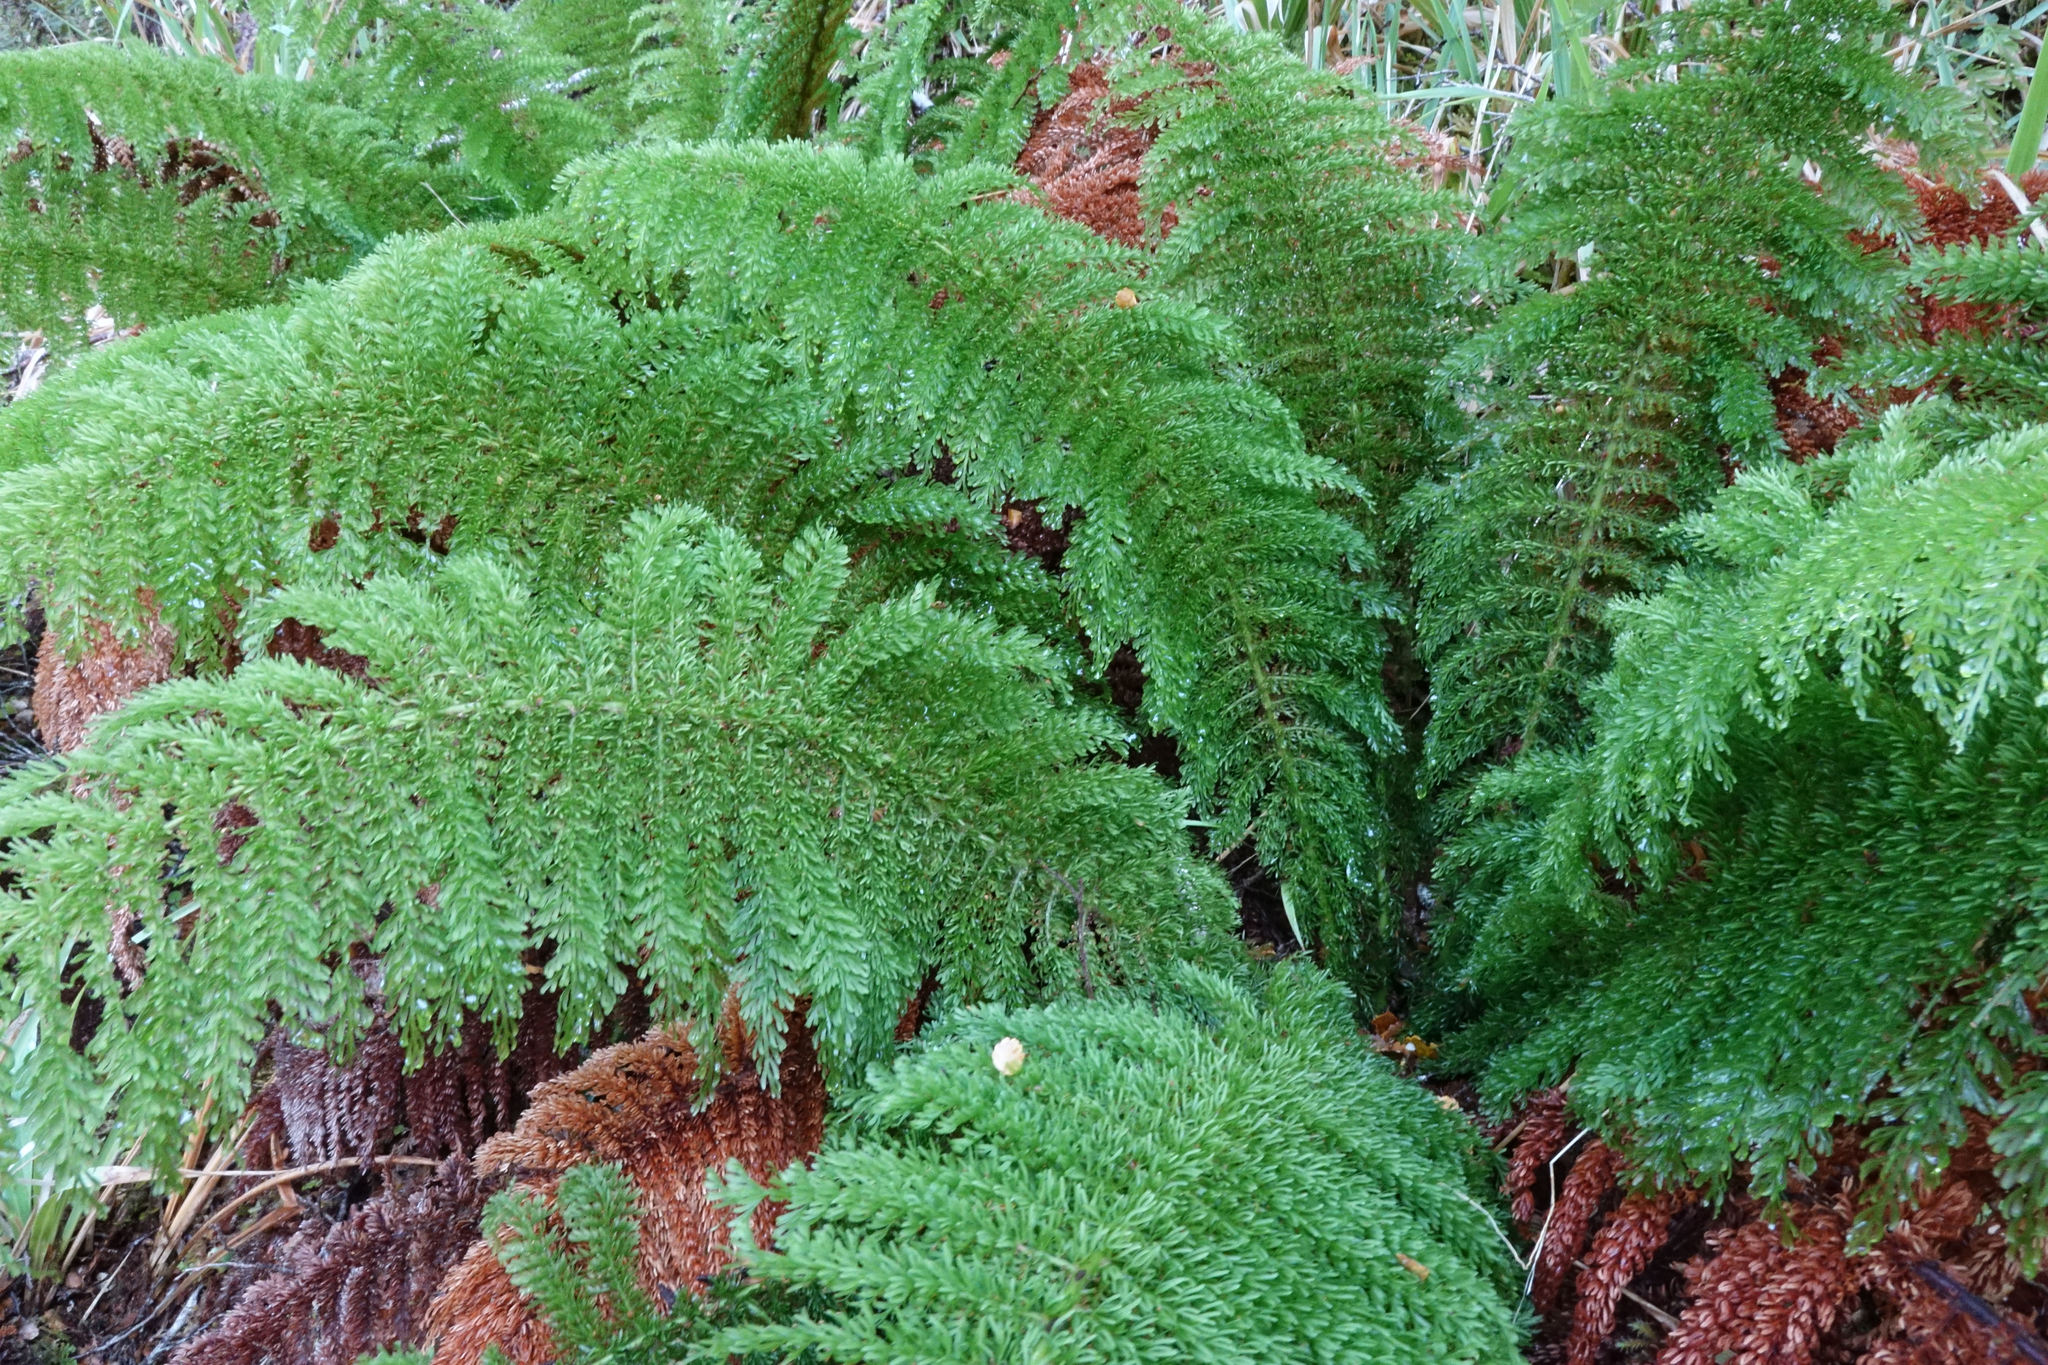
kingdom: Plantae
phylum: Tracheophyta
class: Polypodiopsida
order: Osmundales
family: Osmundaceae
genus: Leptopteris
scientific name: Leptopteris superba
